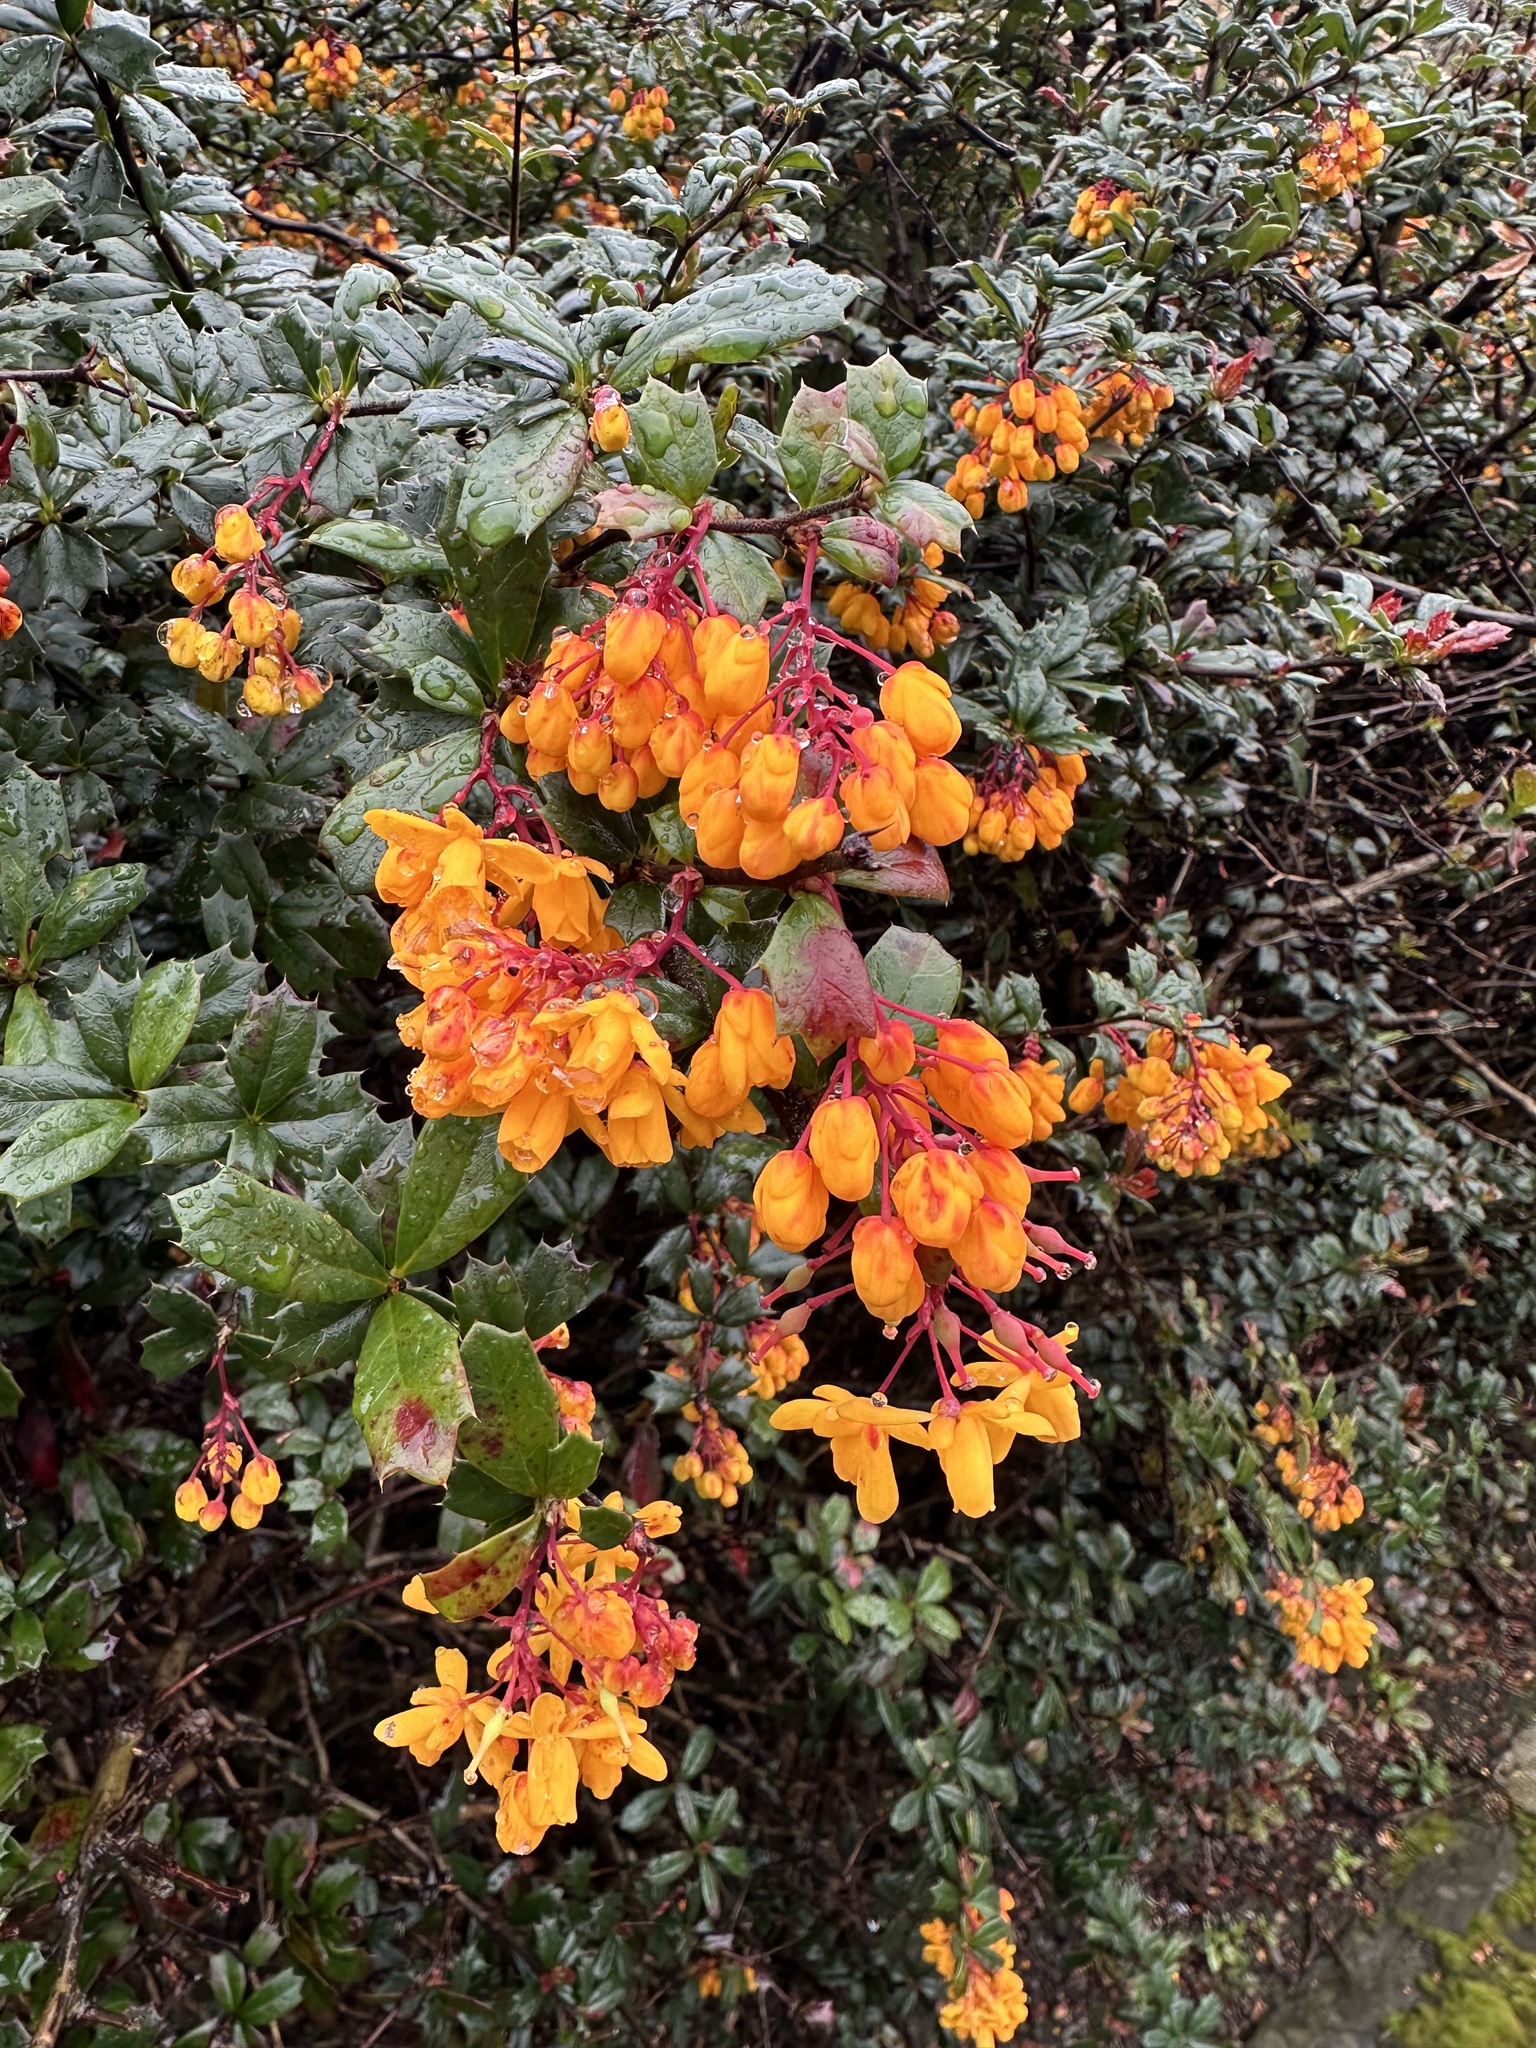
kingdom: Plantae
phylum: Tracheophyta
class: Magnoliopsida
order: Ranunculales
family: Berberidaceae
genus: Berberis
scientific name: Berberis darwinii
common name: Darwin's barberry
